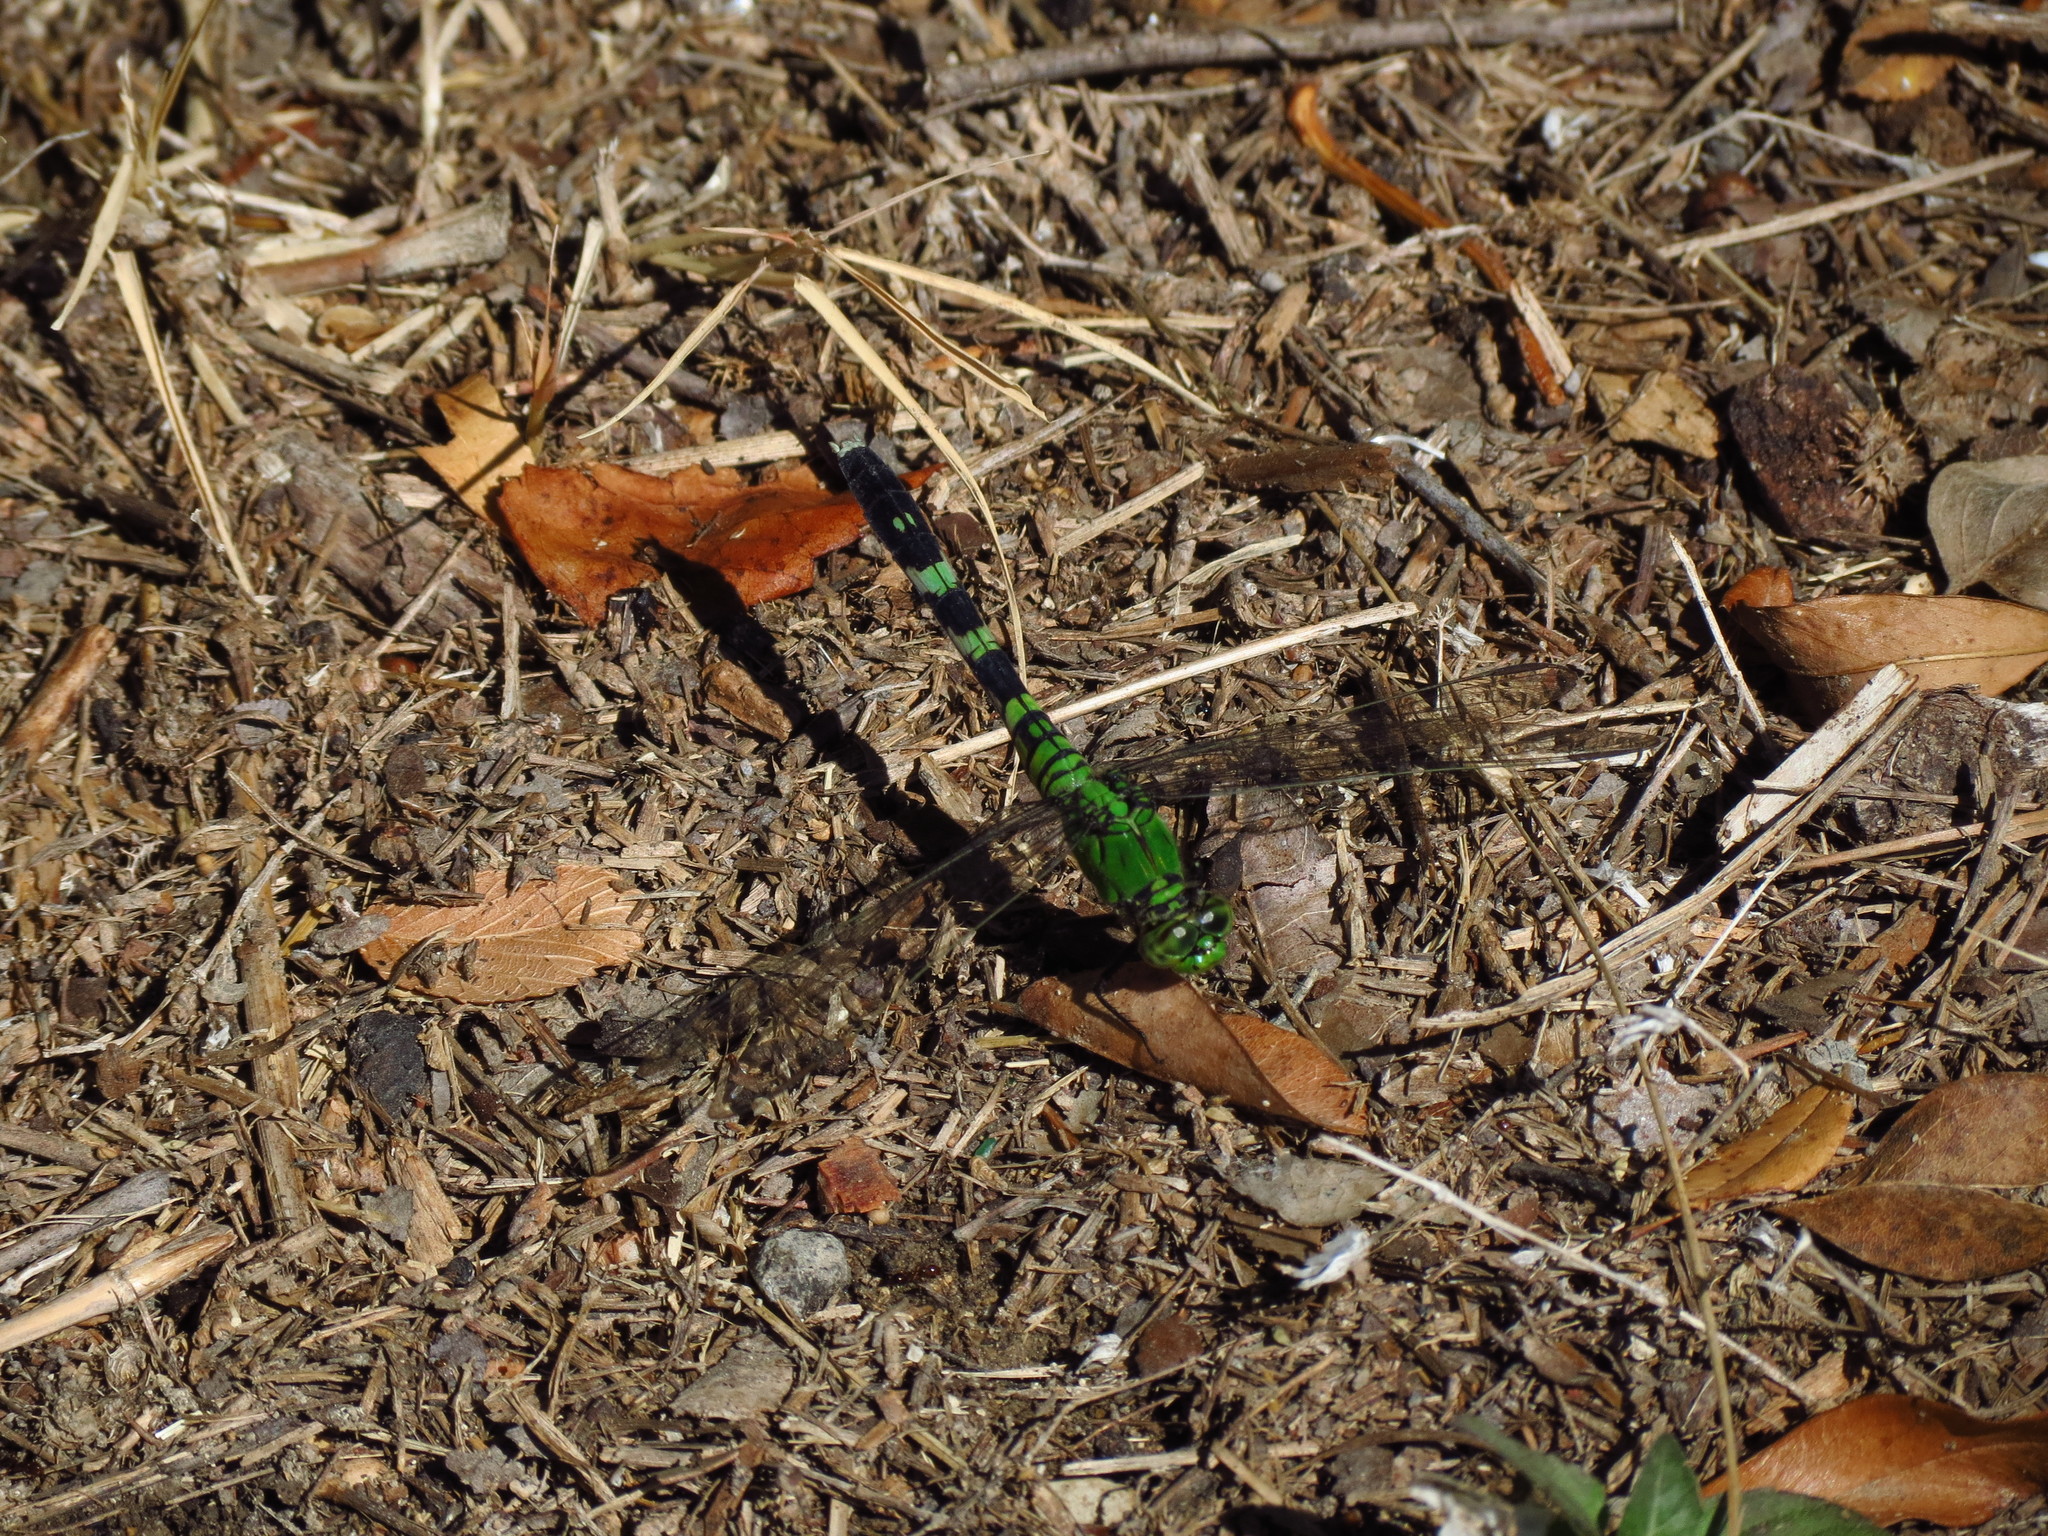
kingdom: Animalia
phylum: Arthropoda
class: Insecta
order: Odonata
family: Libellulidae
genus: Erythemis
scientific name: Erythemis simplicicollis
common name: Eastern pondhawk
